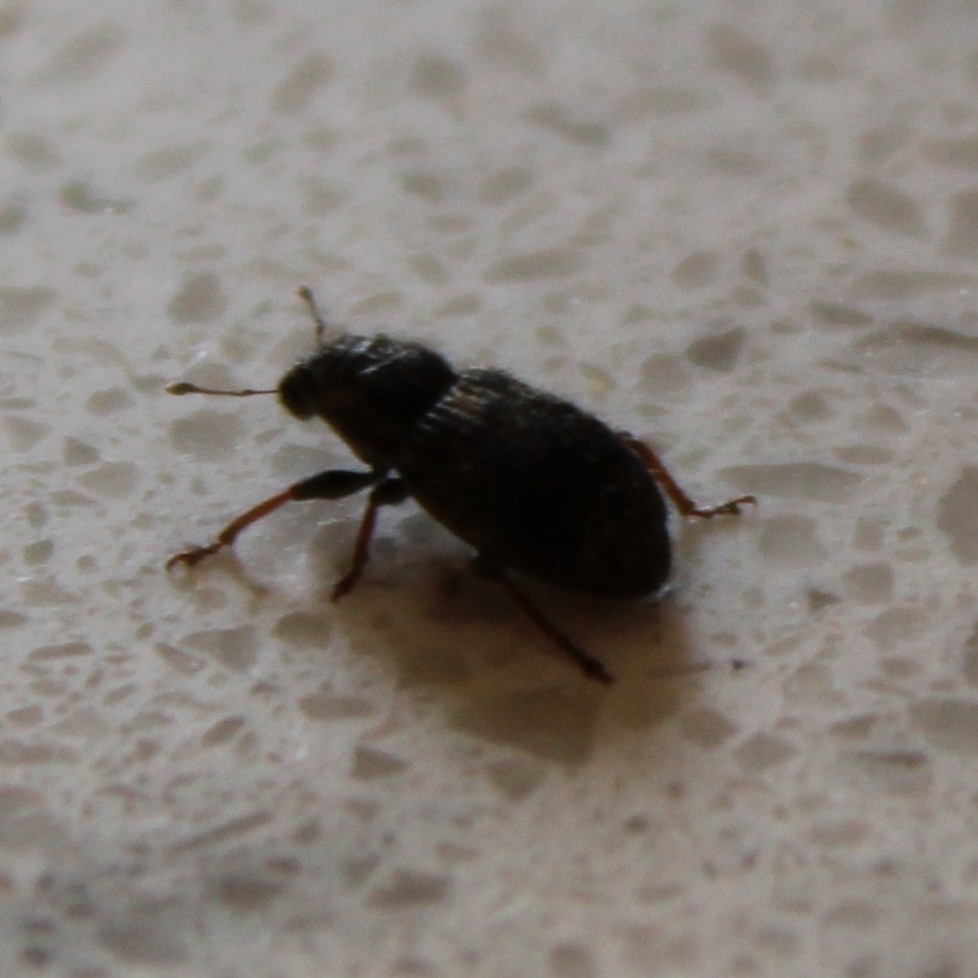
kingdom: Animalia
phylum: Arthropoda
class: Insecta
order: Coleoptera
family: Curculionidae
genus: Sitona
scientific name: Sitona hispidulus
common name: Clover weevil
